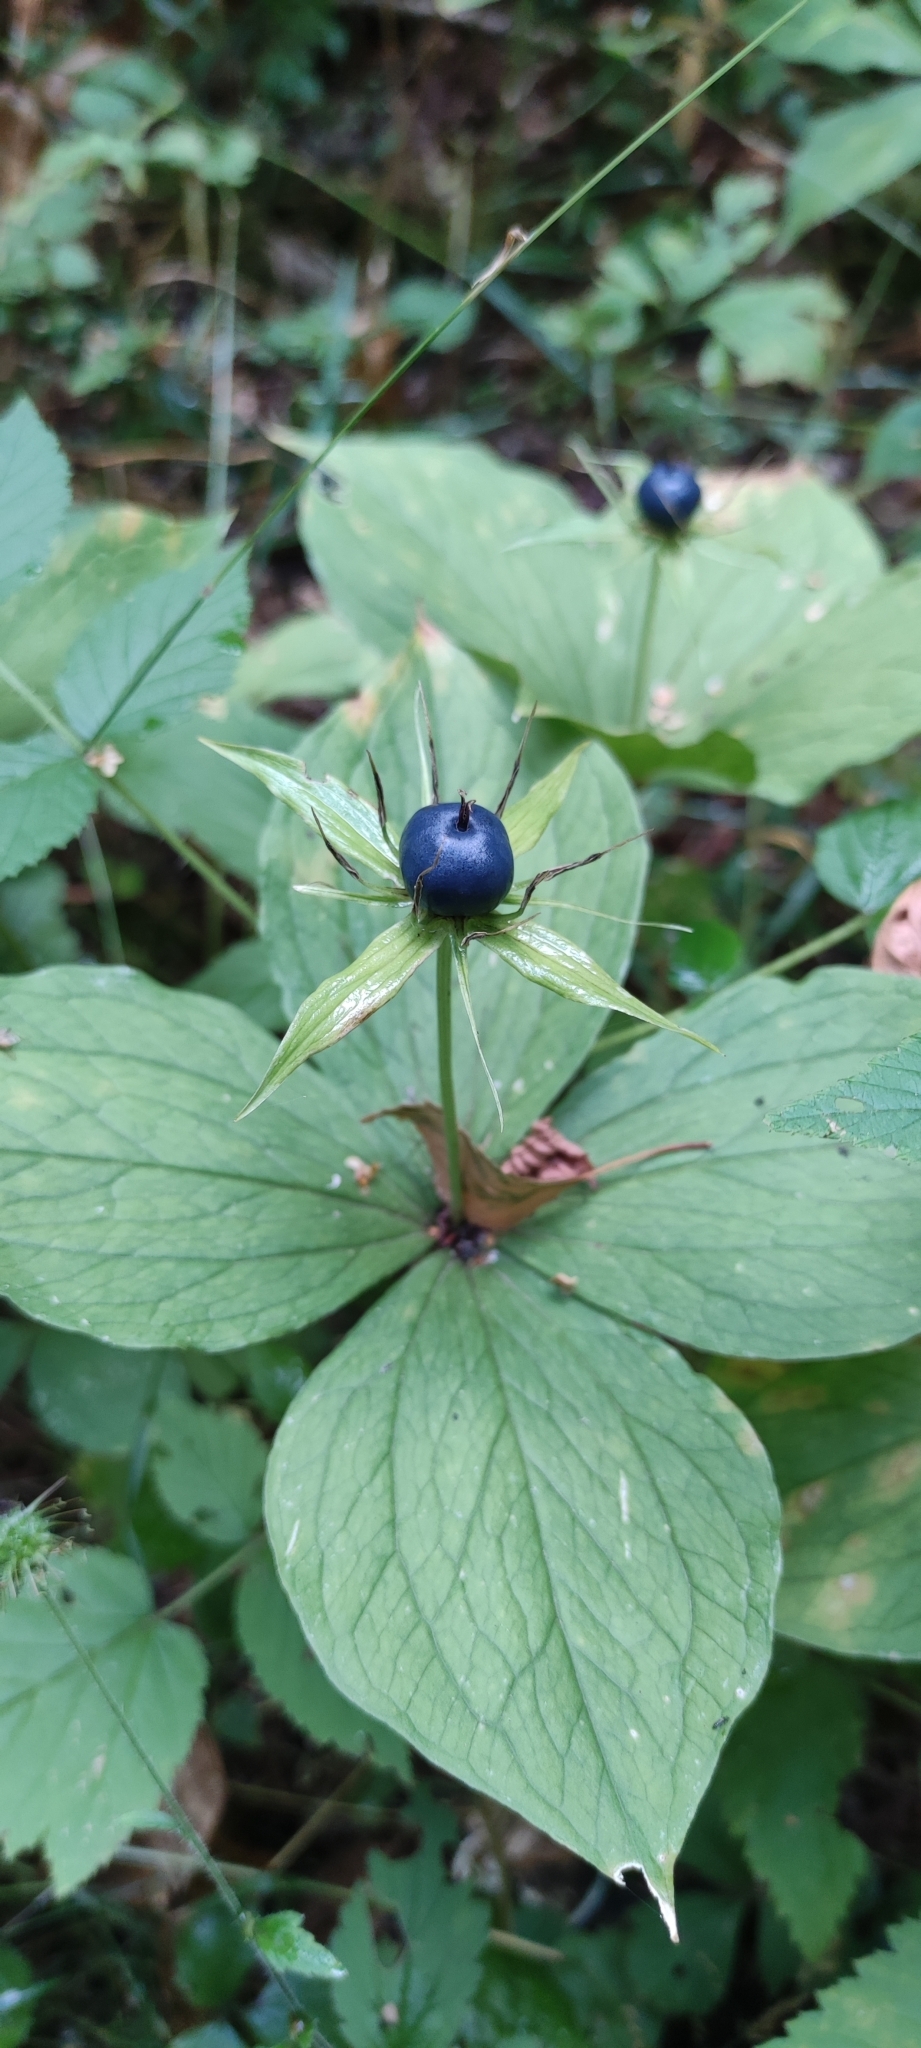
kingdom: Plantae
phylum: Tracheophyta
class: Liliopsida
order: Liliales
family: Melanthiaceae
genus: Paris
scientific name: Paris quadrifolia
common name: Herb-paris
